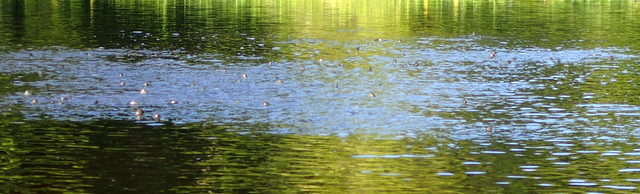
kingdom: Animalia
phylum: Chordata
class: Amphibia
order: Anura
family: Ranidae
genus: Lithobates
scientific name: Lithobates heckscheri
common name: River frog
